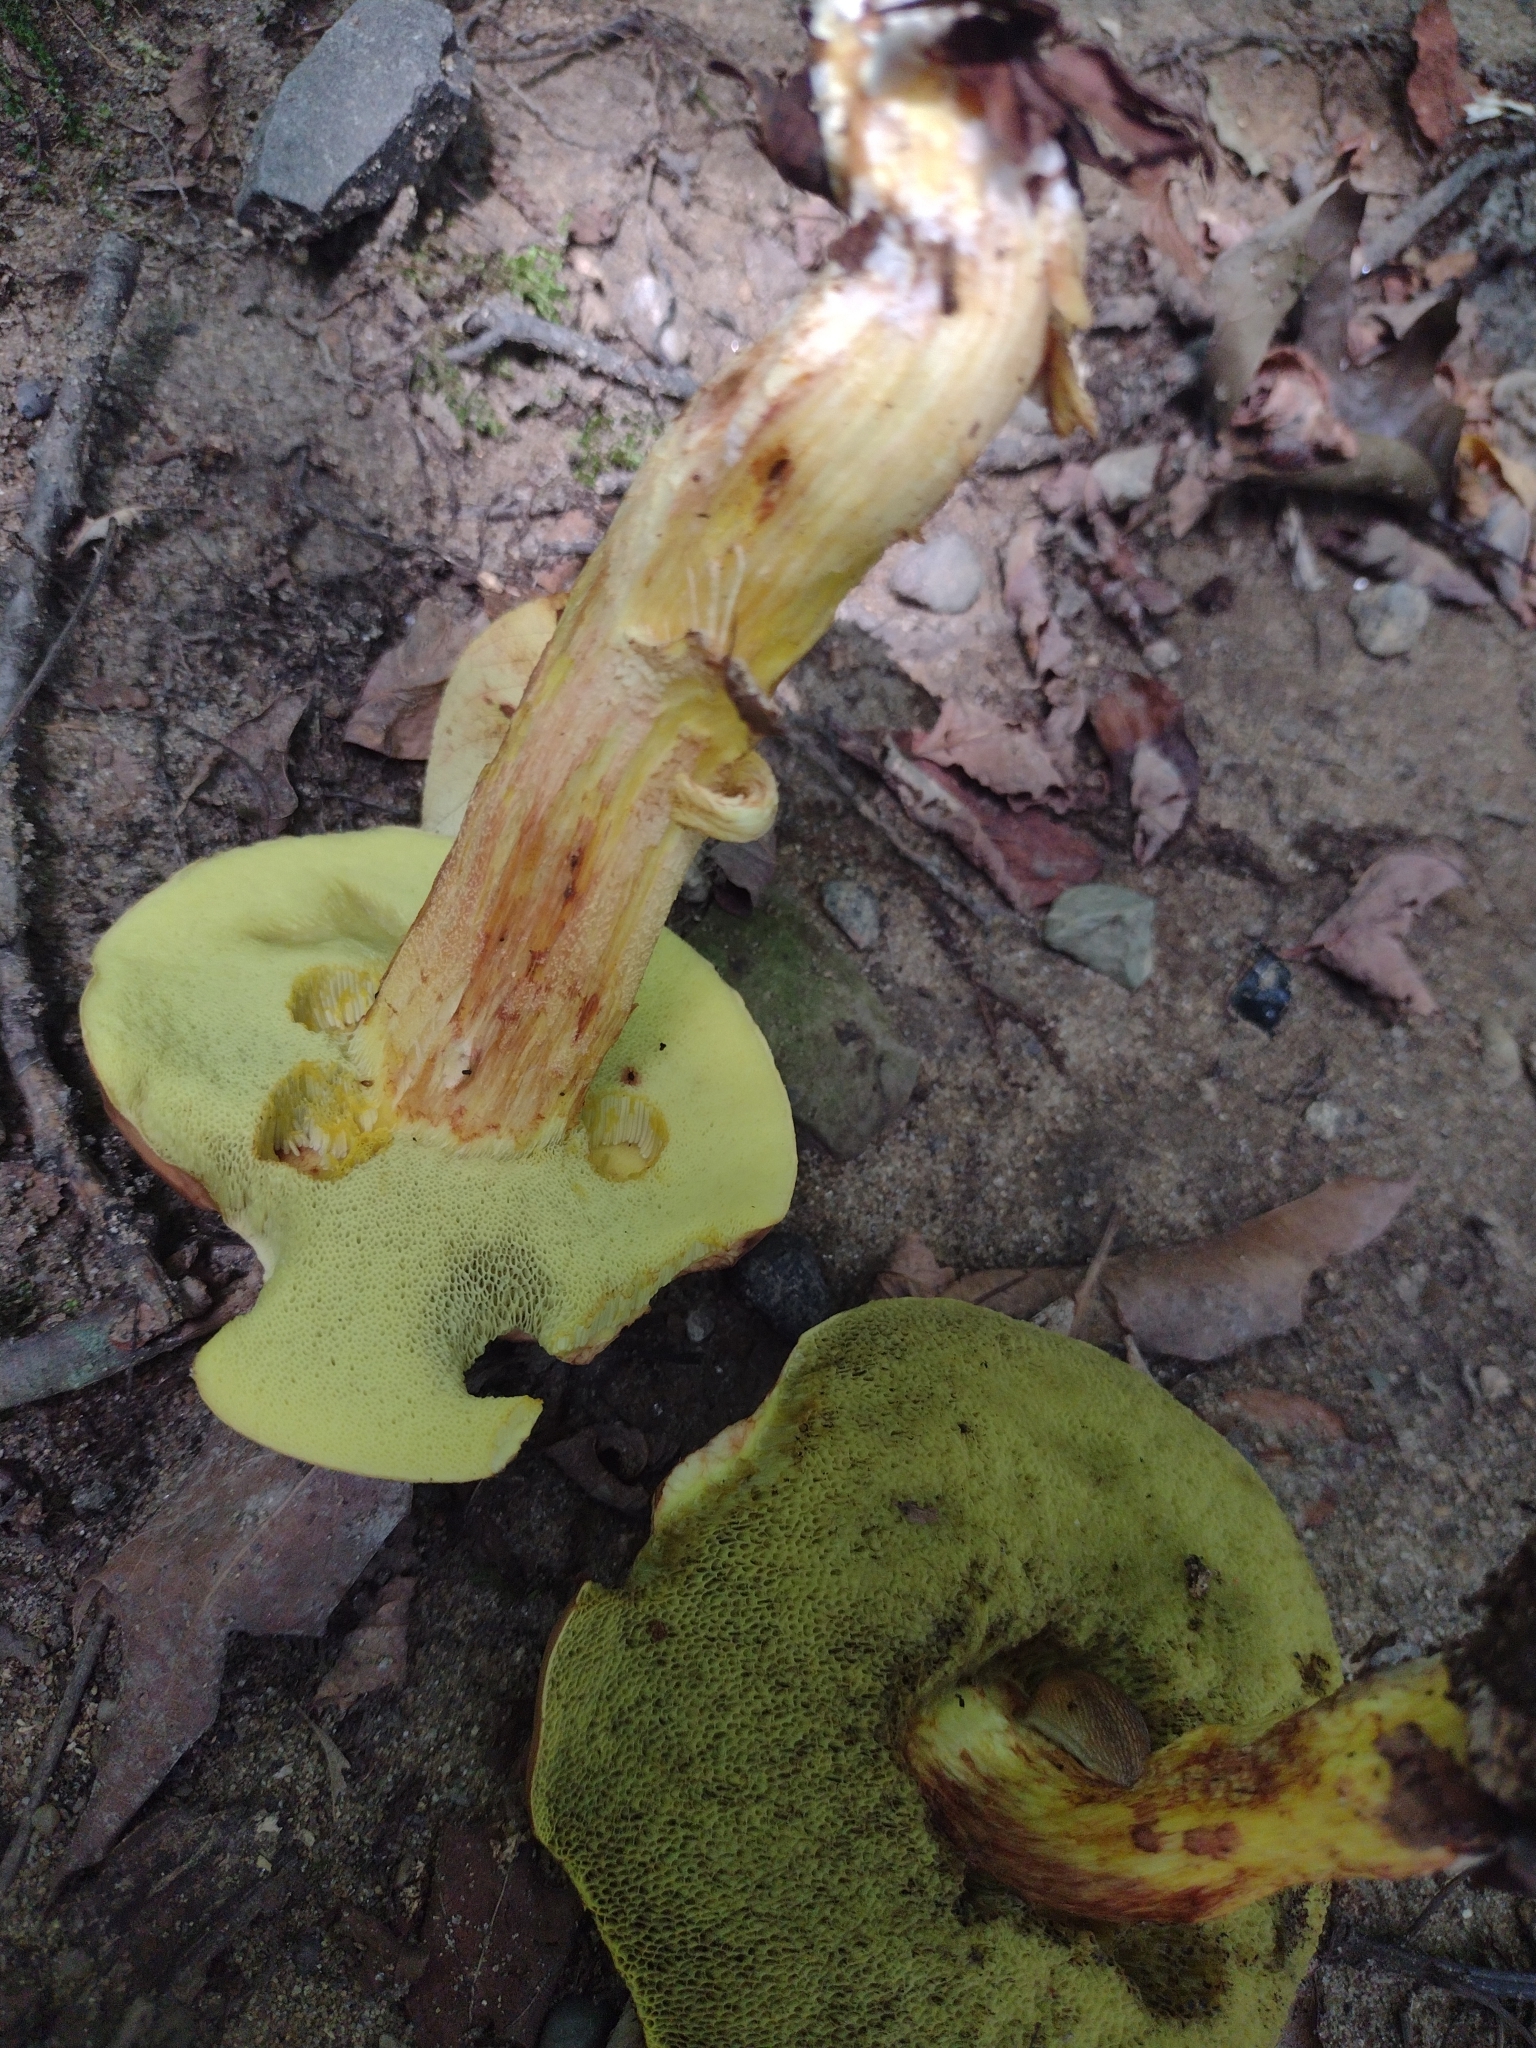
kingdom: Fungi
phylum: Basidiomycota
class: Agaricomycetes
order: Boletales
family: Boletaceae
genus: Hemileccinum
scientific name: Hemileccinum rubropunctum
